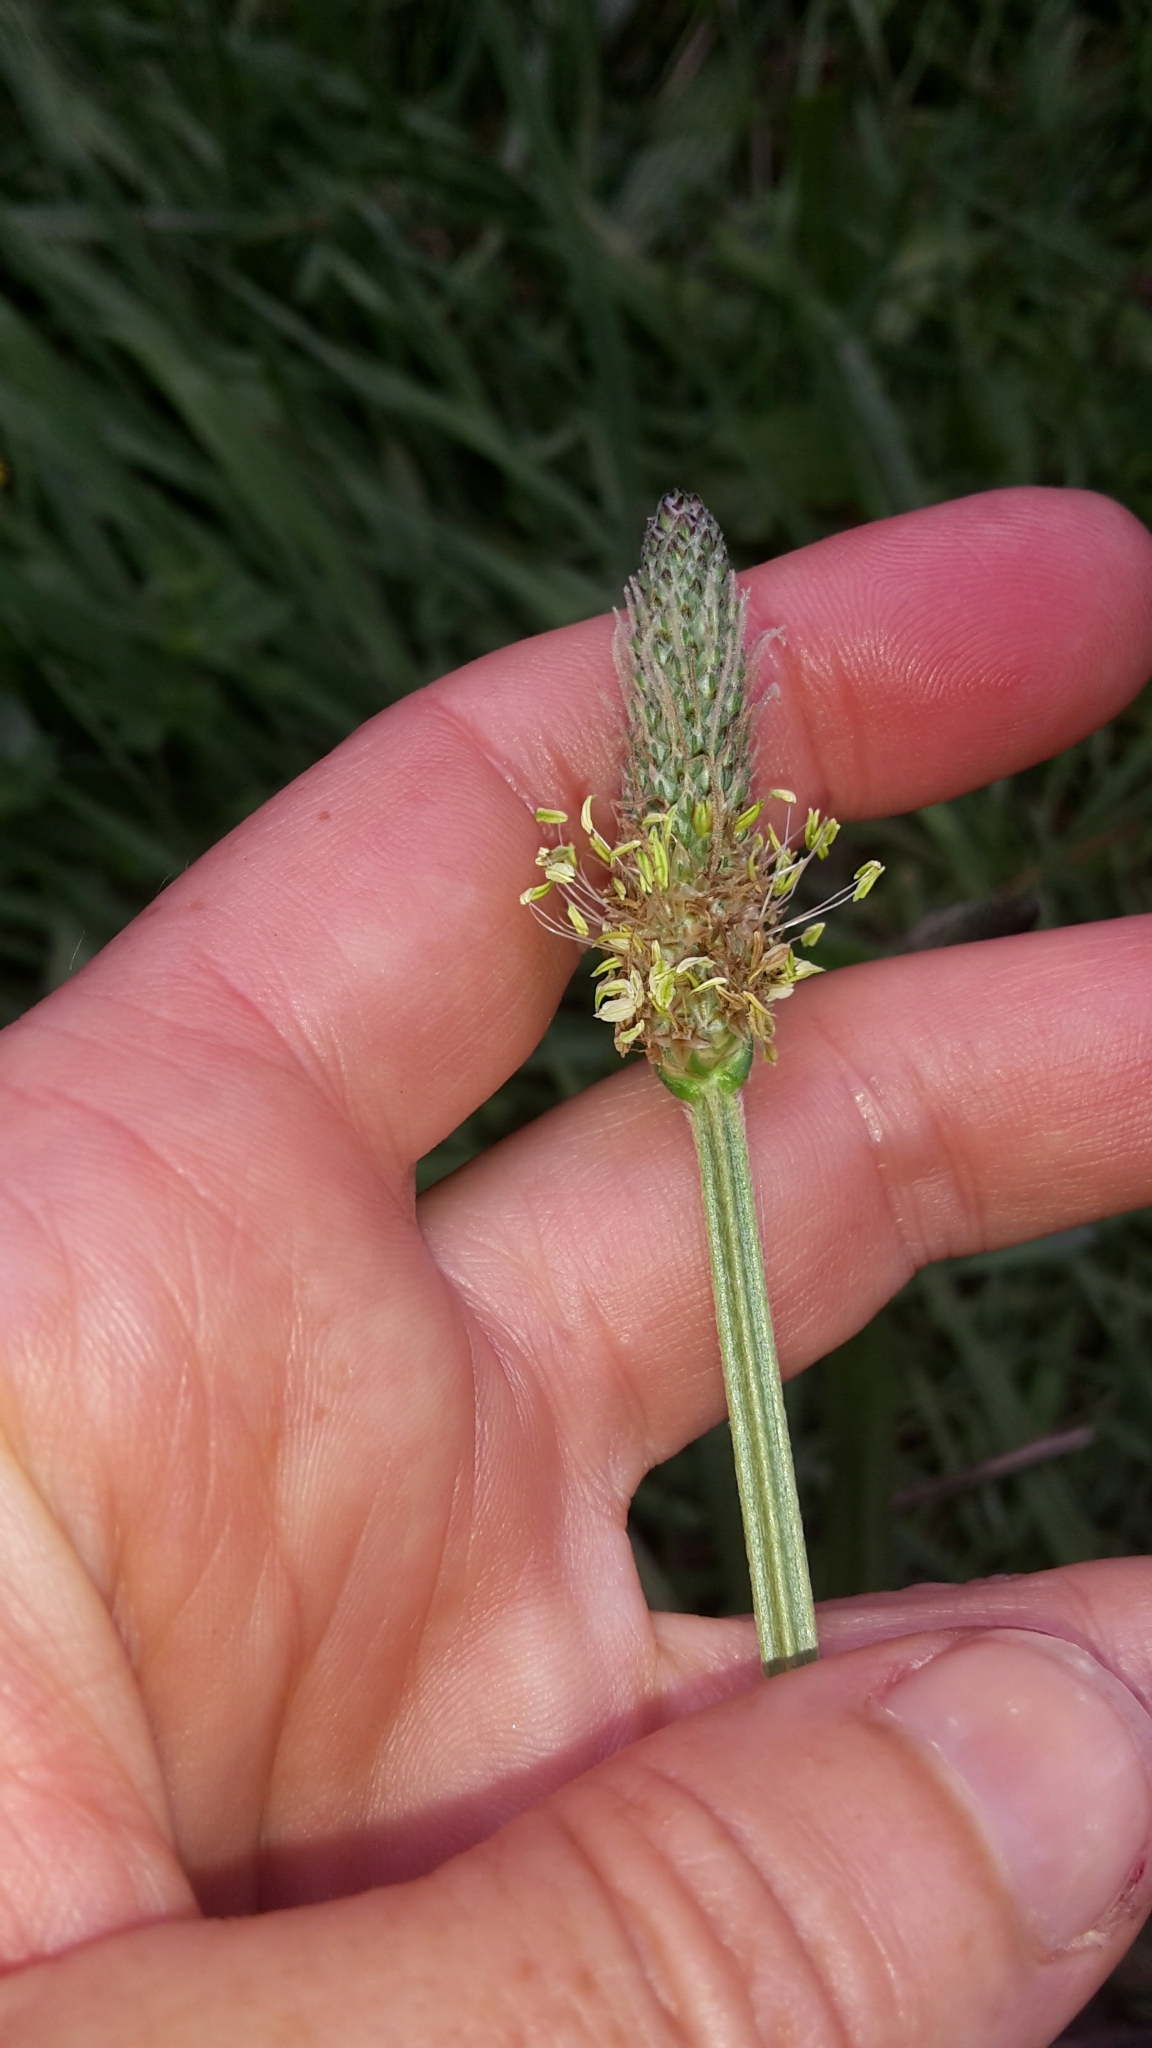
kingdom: Plantae
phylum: Tracheophyta
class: Magnoliopsida
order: Lamiales
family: Plantaginaceae
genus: Plantago
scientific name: Plantago lanceolata
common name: Ribwort plantain
